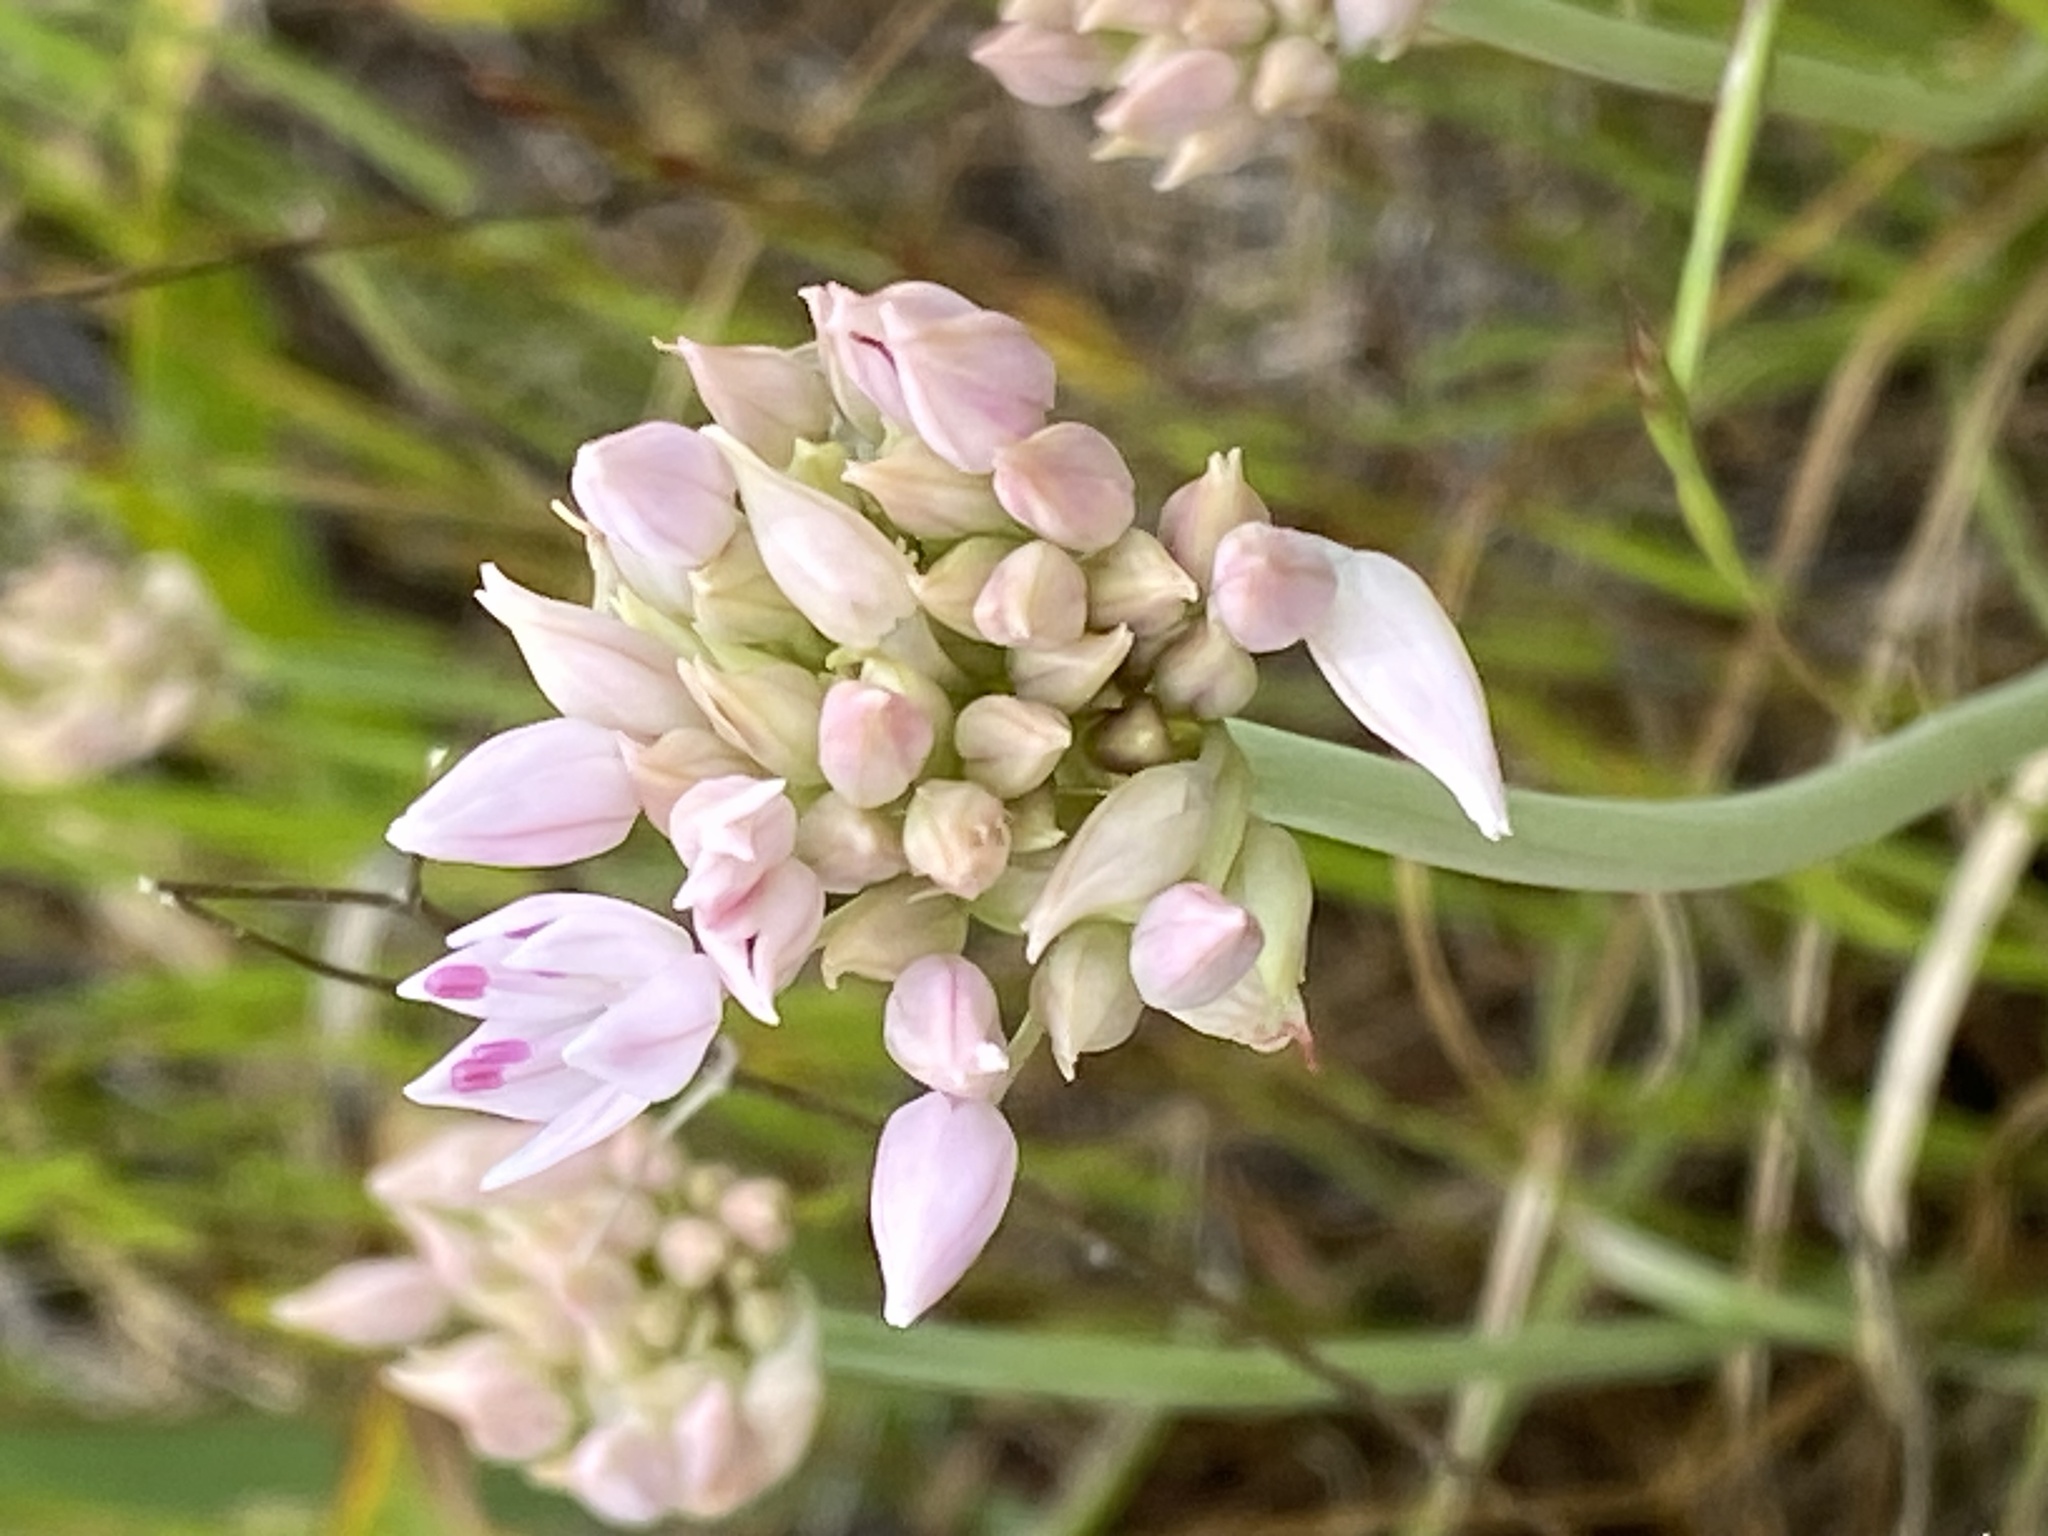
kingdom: Plantae
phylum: Tracheophyta
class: Liliopsida
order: Asparagales
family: Amaryllidaceae
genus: Allium
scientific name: Allium amplectens
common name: Narrow-leaved onion
